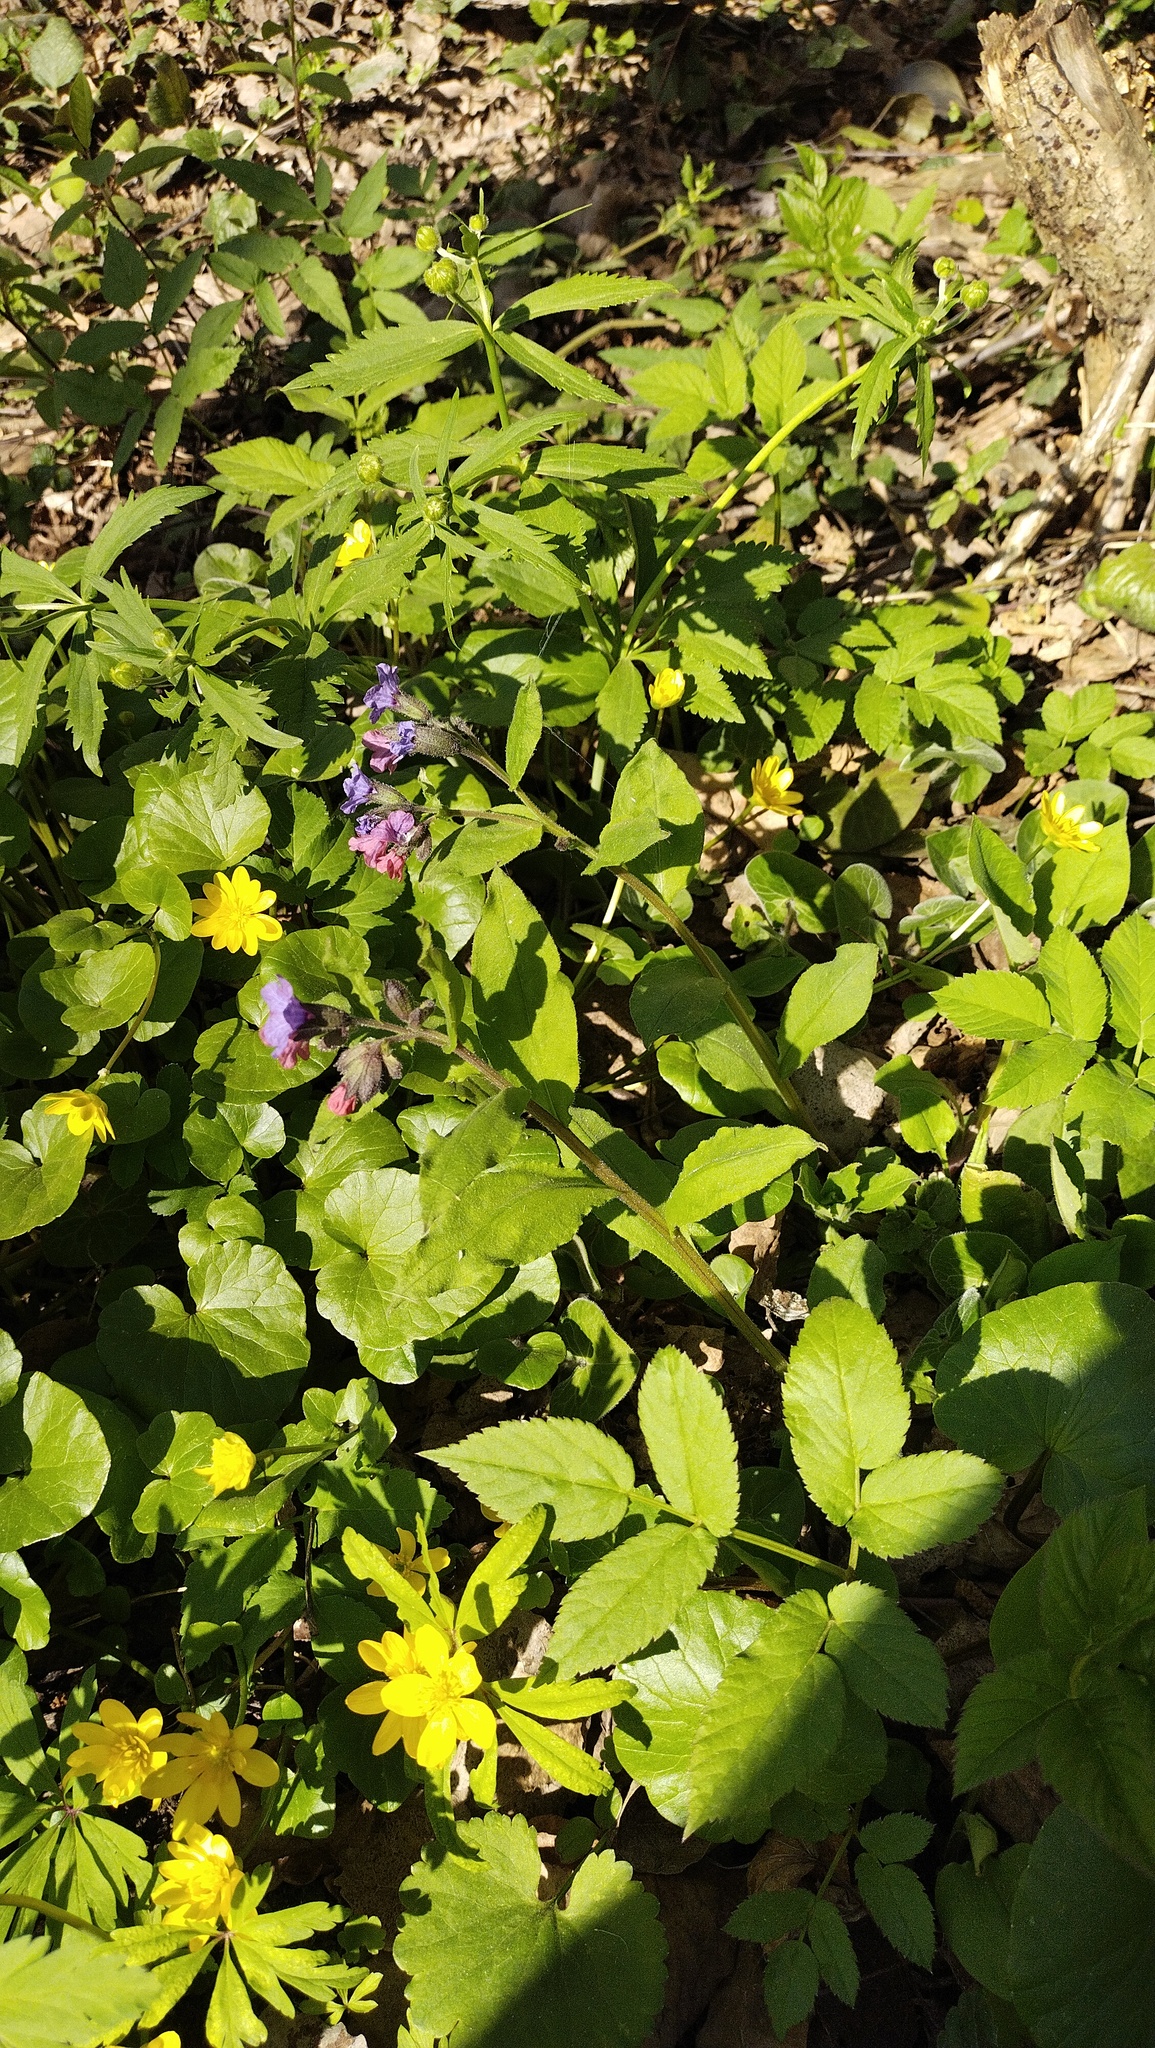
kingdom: Plantae
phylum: Tracheophyta
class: Magnoliopsida
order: Boraginales
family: Boraginaceae
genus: Pulmonaria
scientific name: Pulmonaria obscura
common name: Suffolk lungwort
